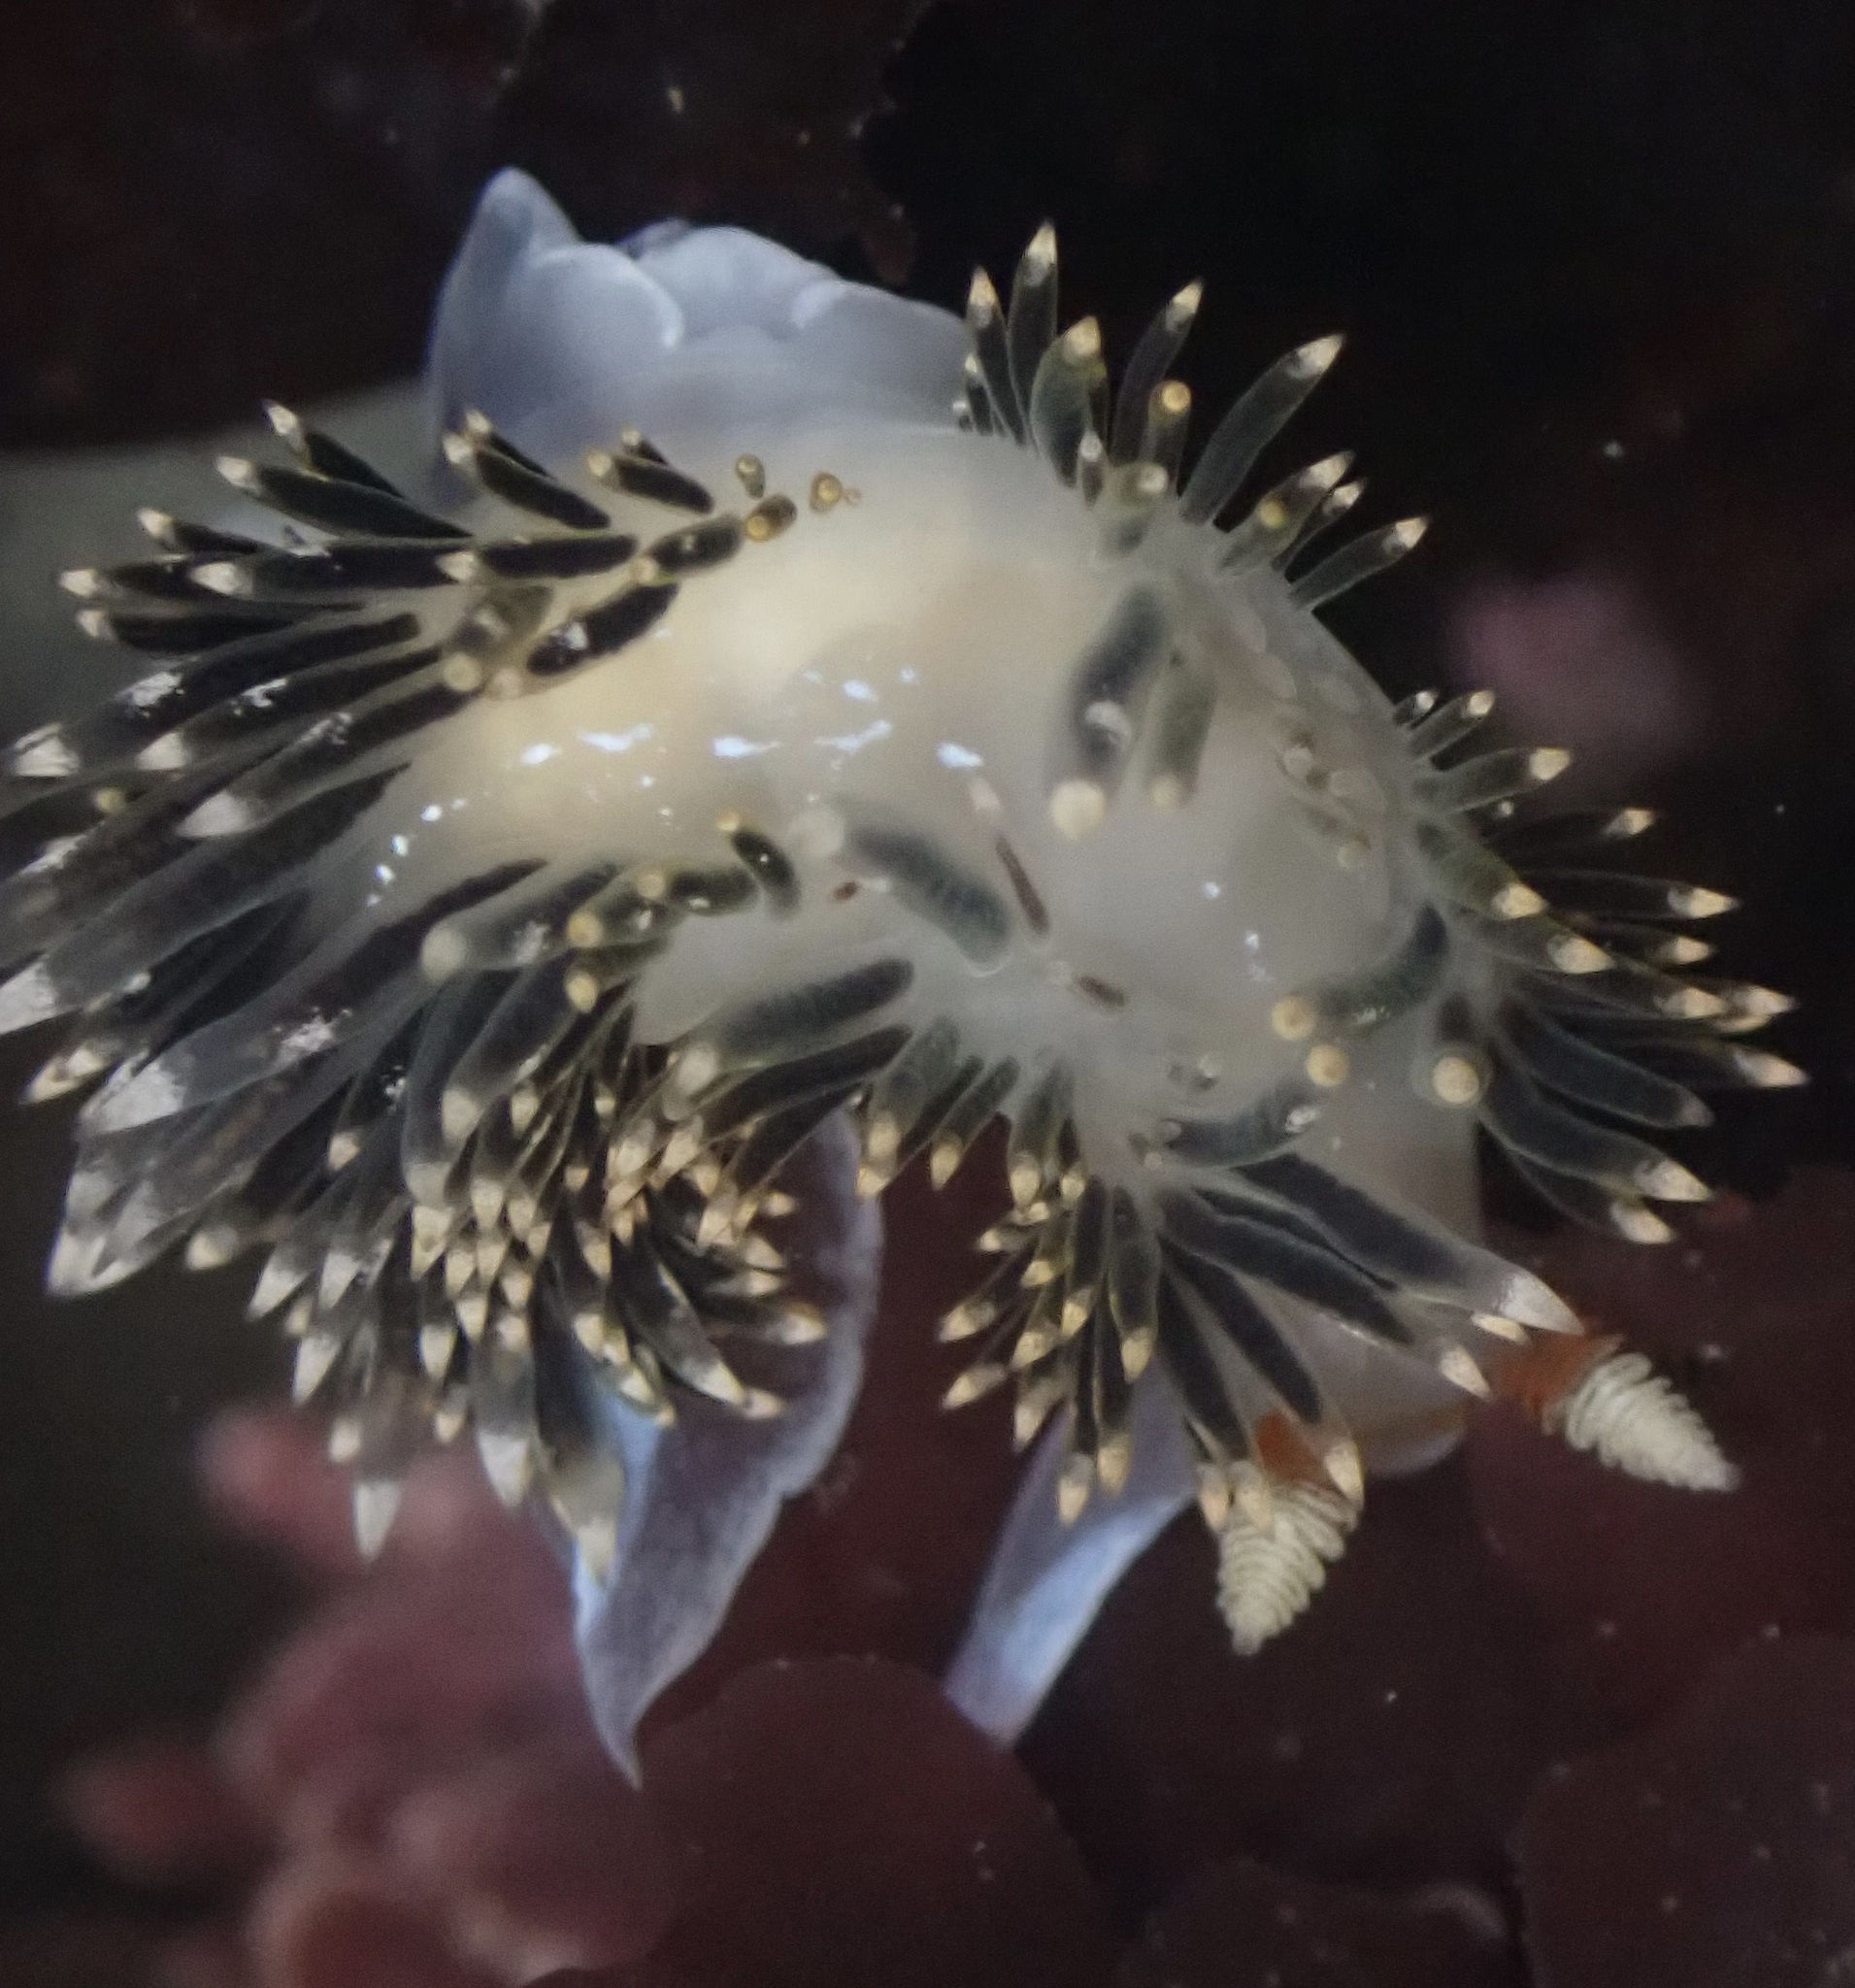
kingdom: Animalia
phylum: Mollusca
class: Gastropoda
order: Nudibranchia
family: Facelinidae
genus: Phidiana
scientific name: Phidiana hiltoni
